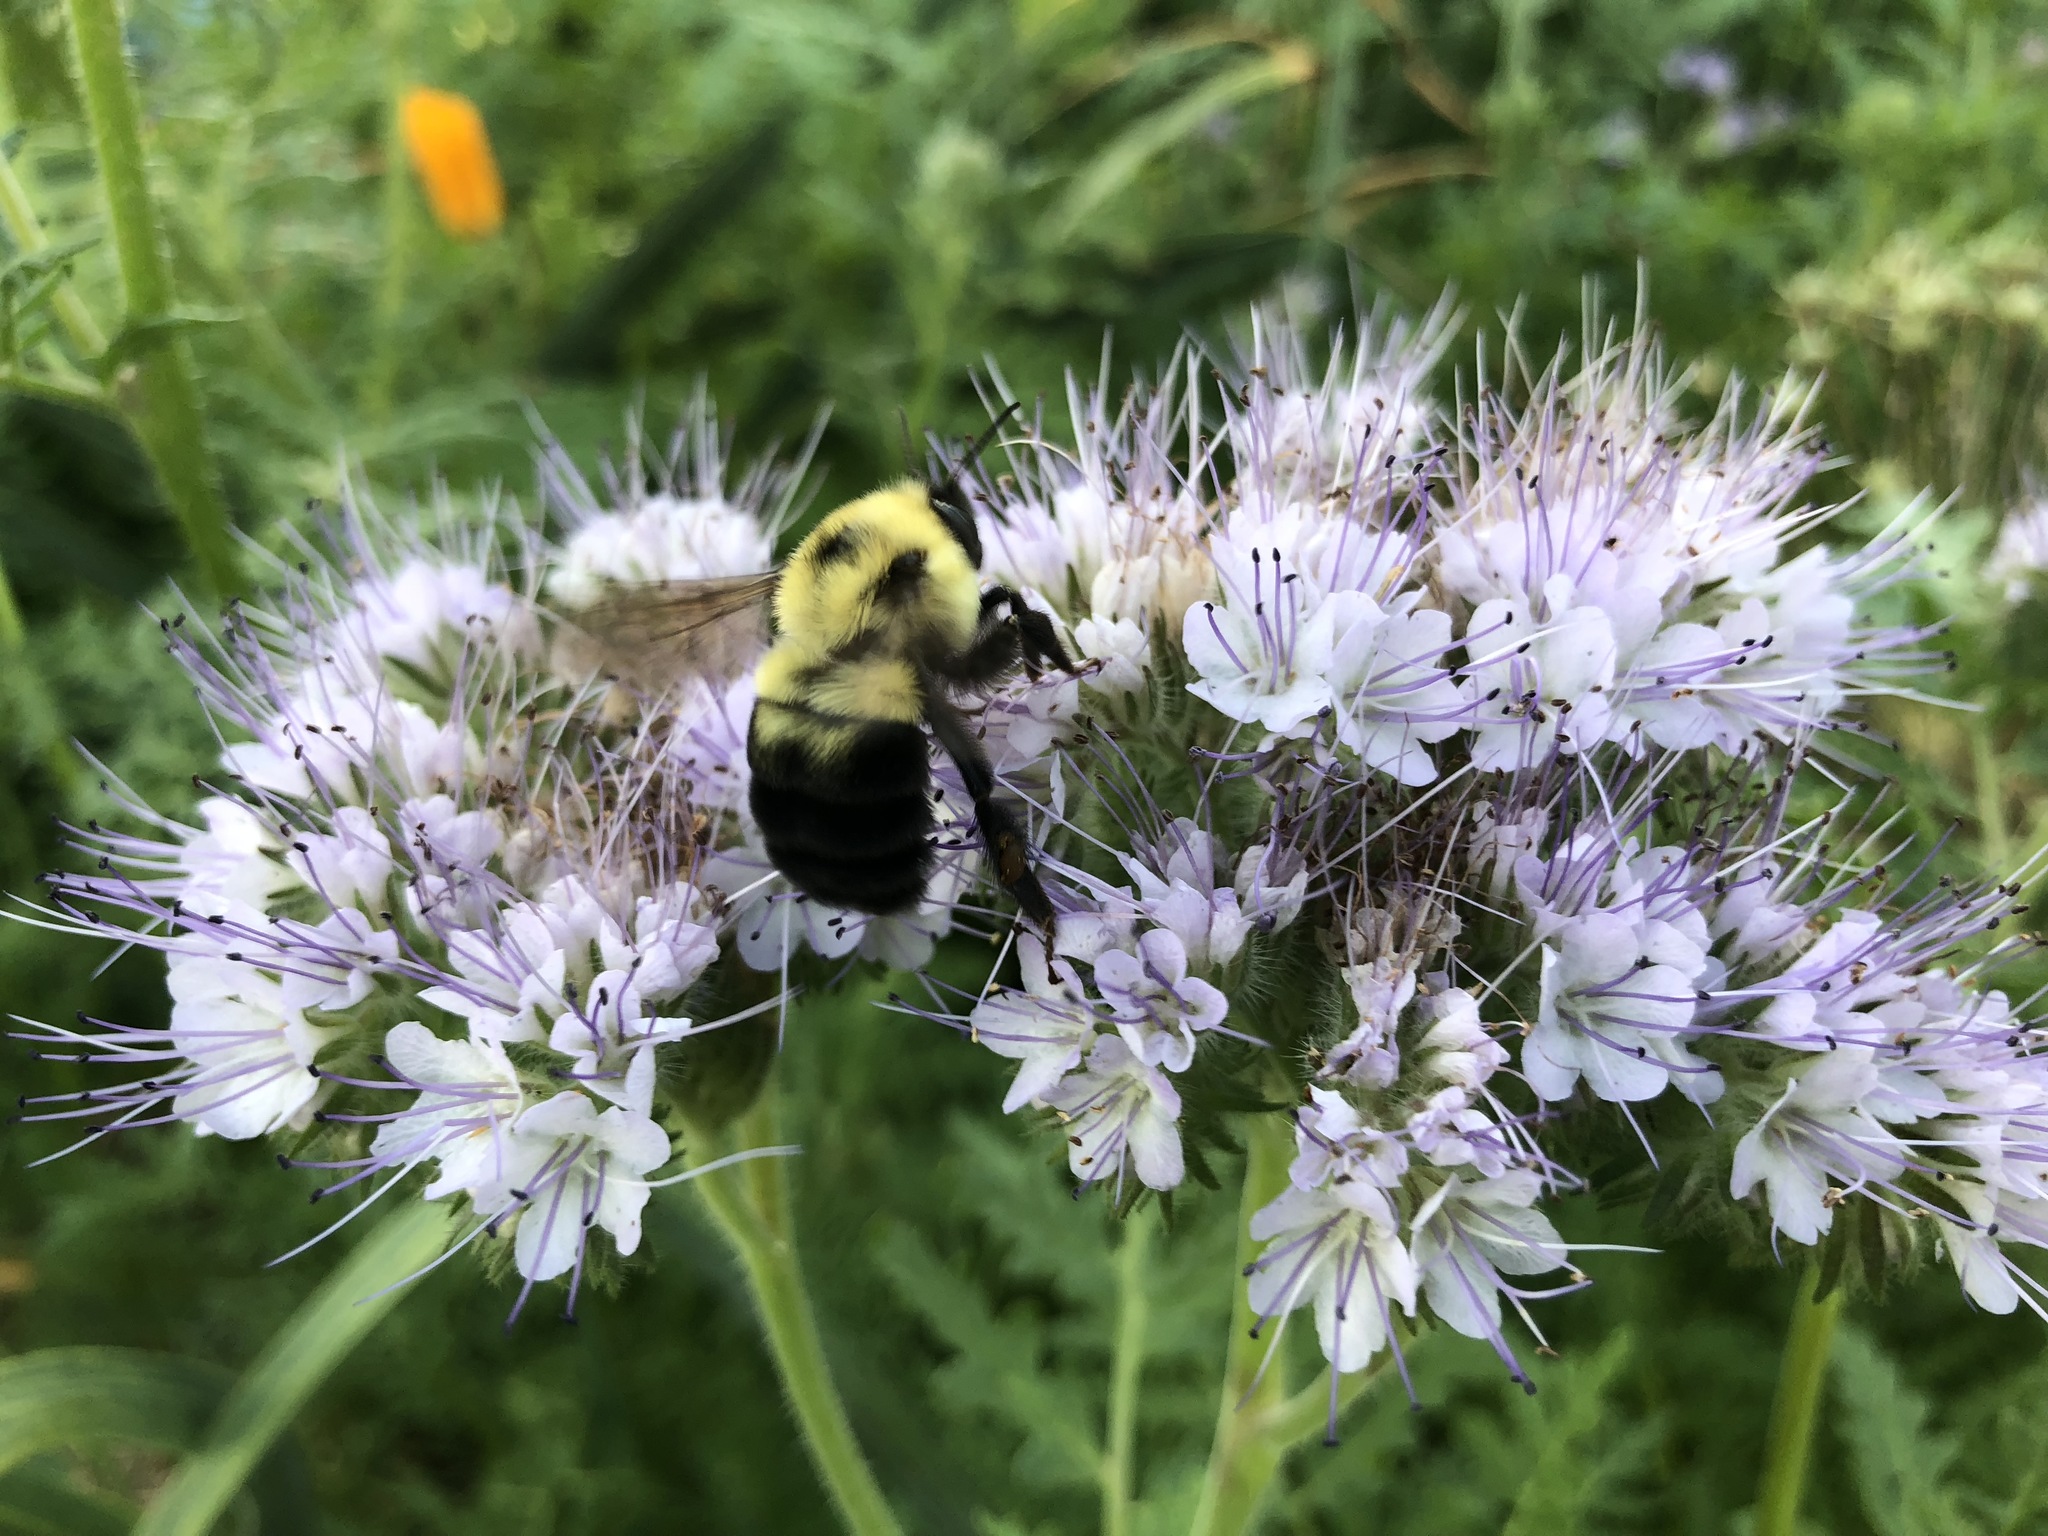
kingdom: Animalia
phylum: Arthropoda
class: Insecta
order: Hymenoptera
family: Apidae
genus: Bombus
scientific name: Bombus bimaculatus
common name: Two-spotted bumble bee
